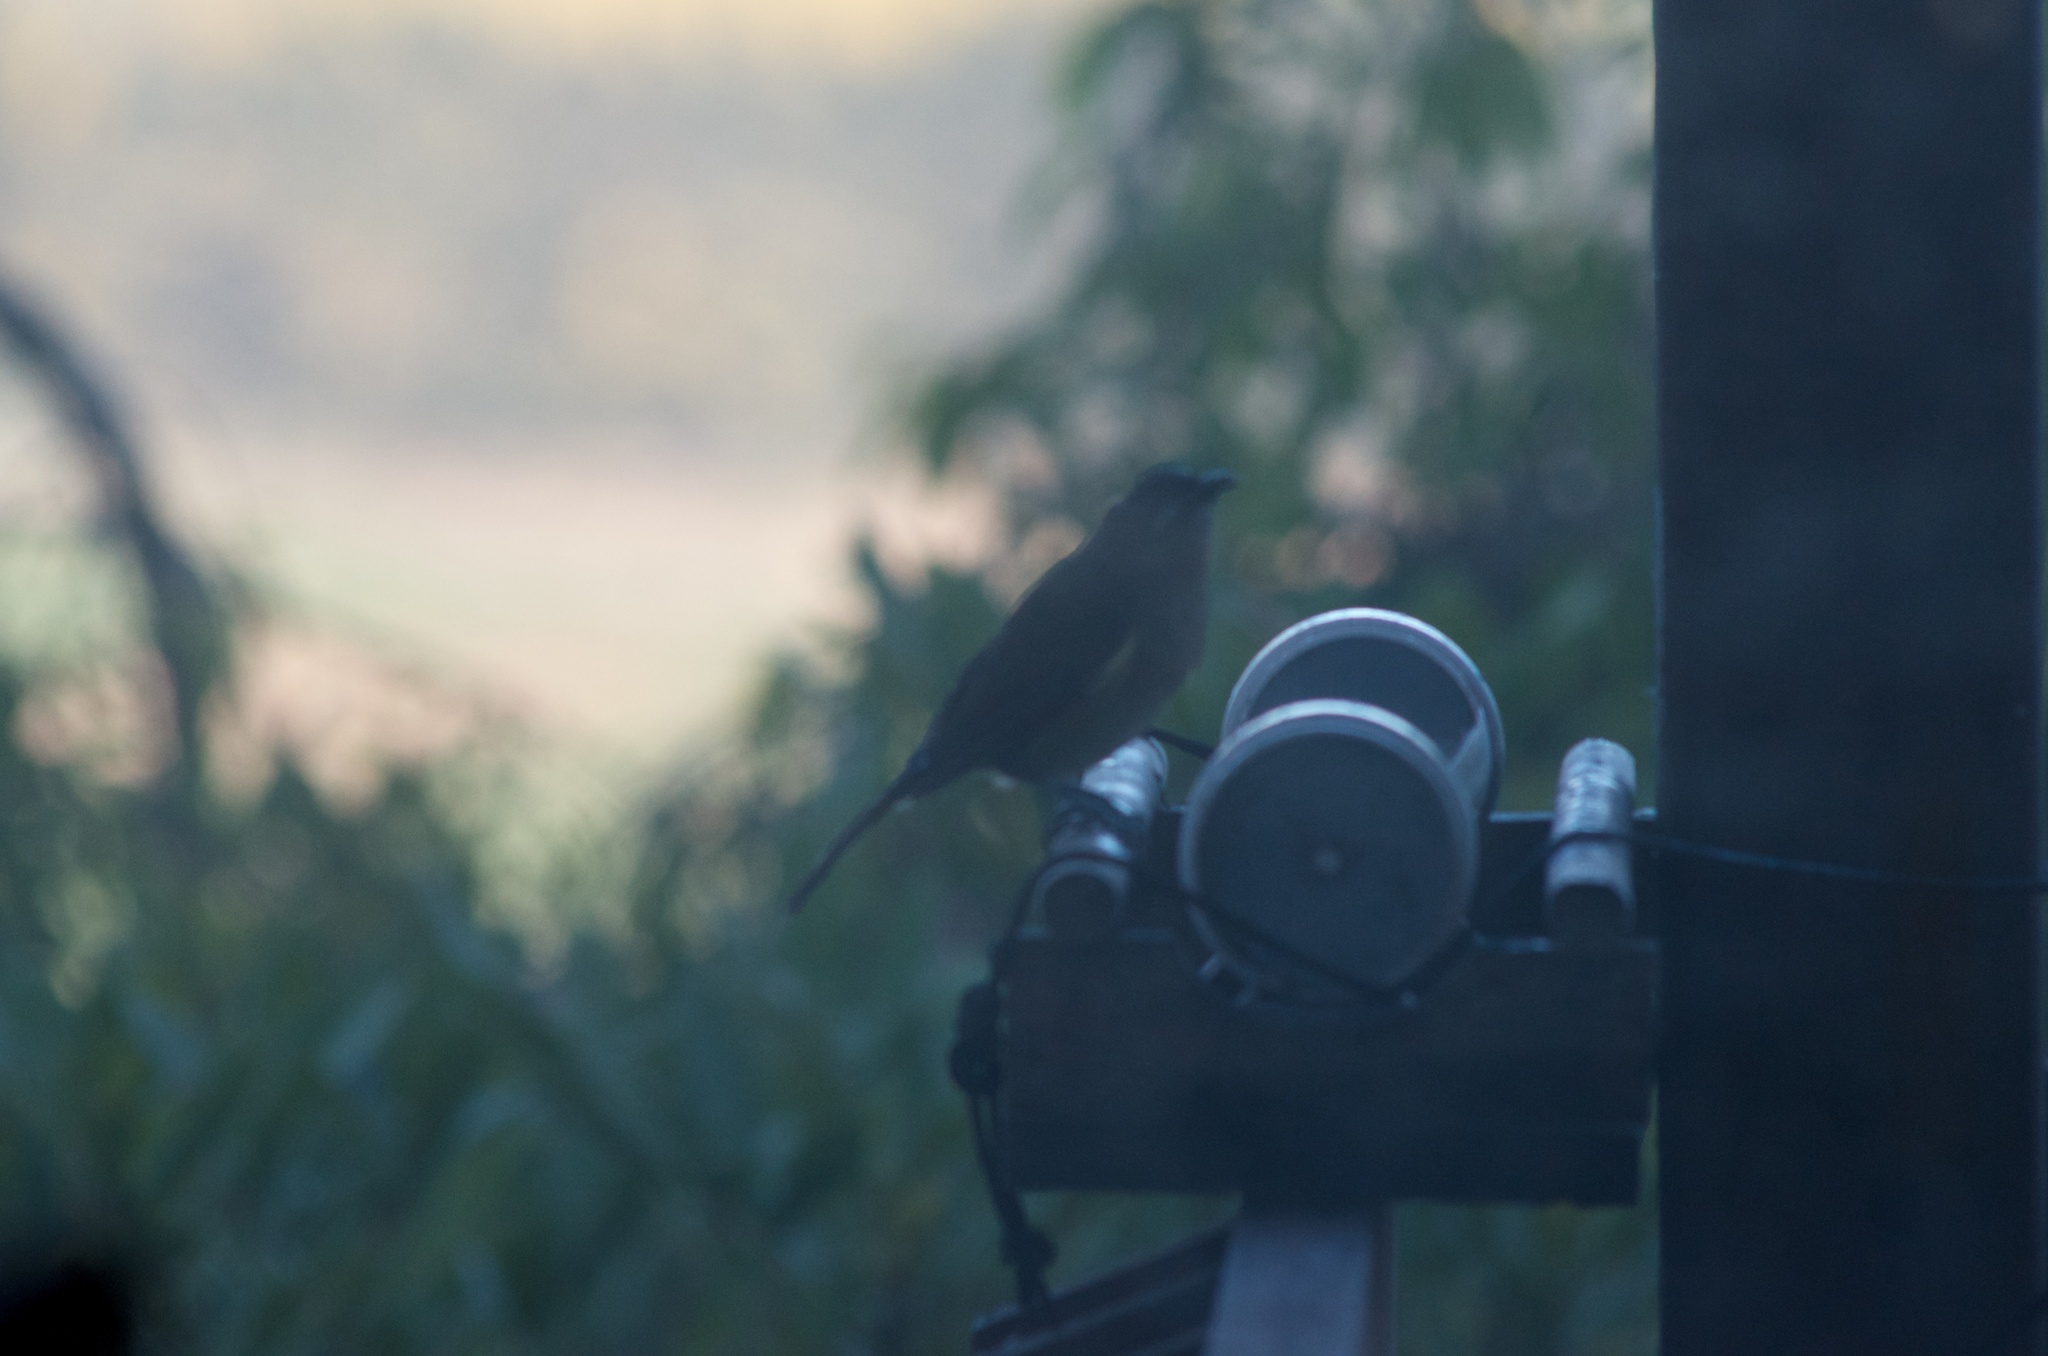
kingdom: Animalia
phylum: Chordata
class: Aves
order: Passeriformes
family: Meliphagidae
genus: Anthornis
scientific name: Anthornis melanura
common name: New zealand bellbird
